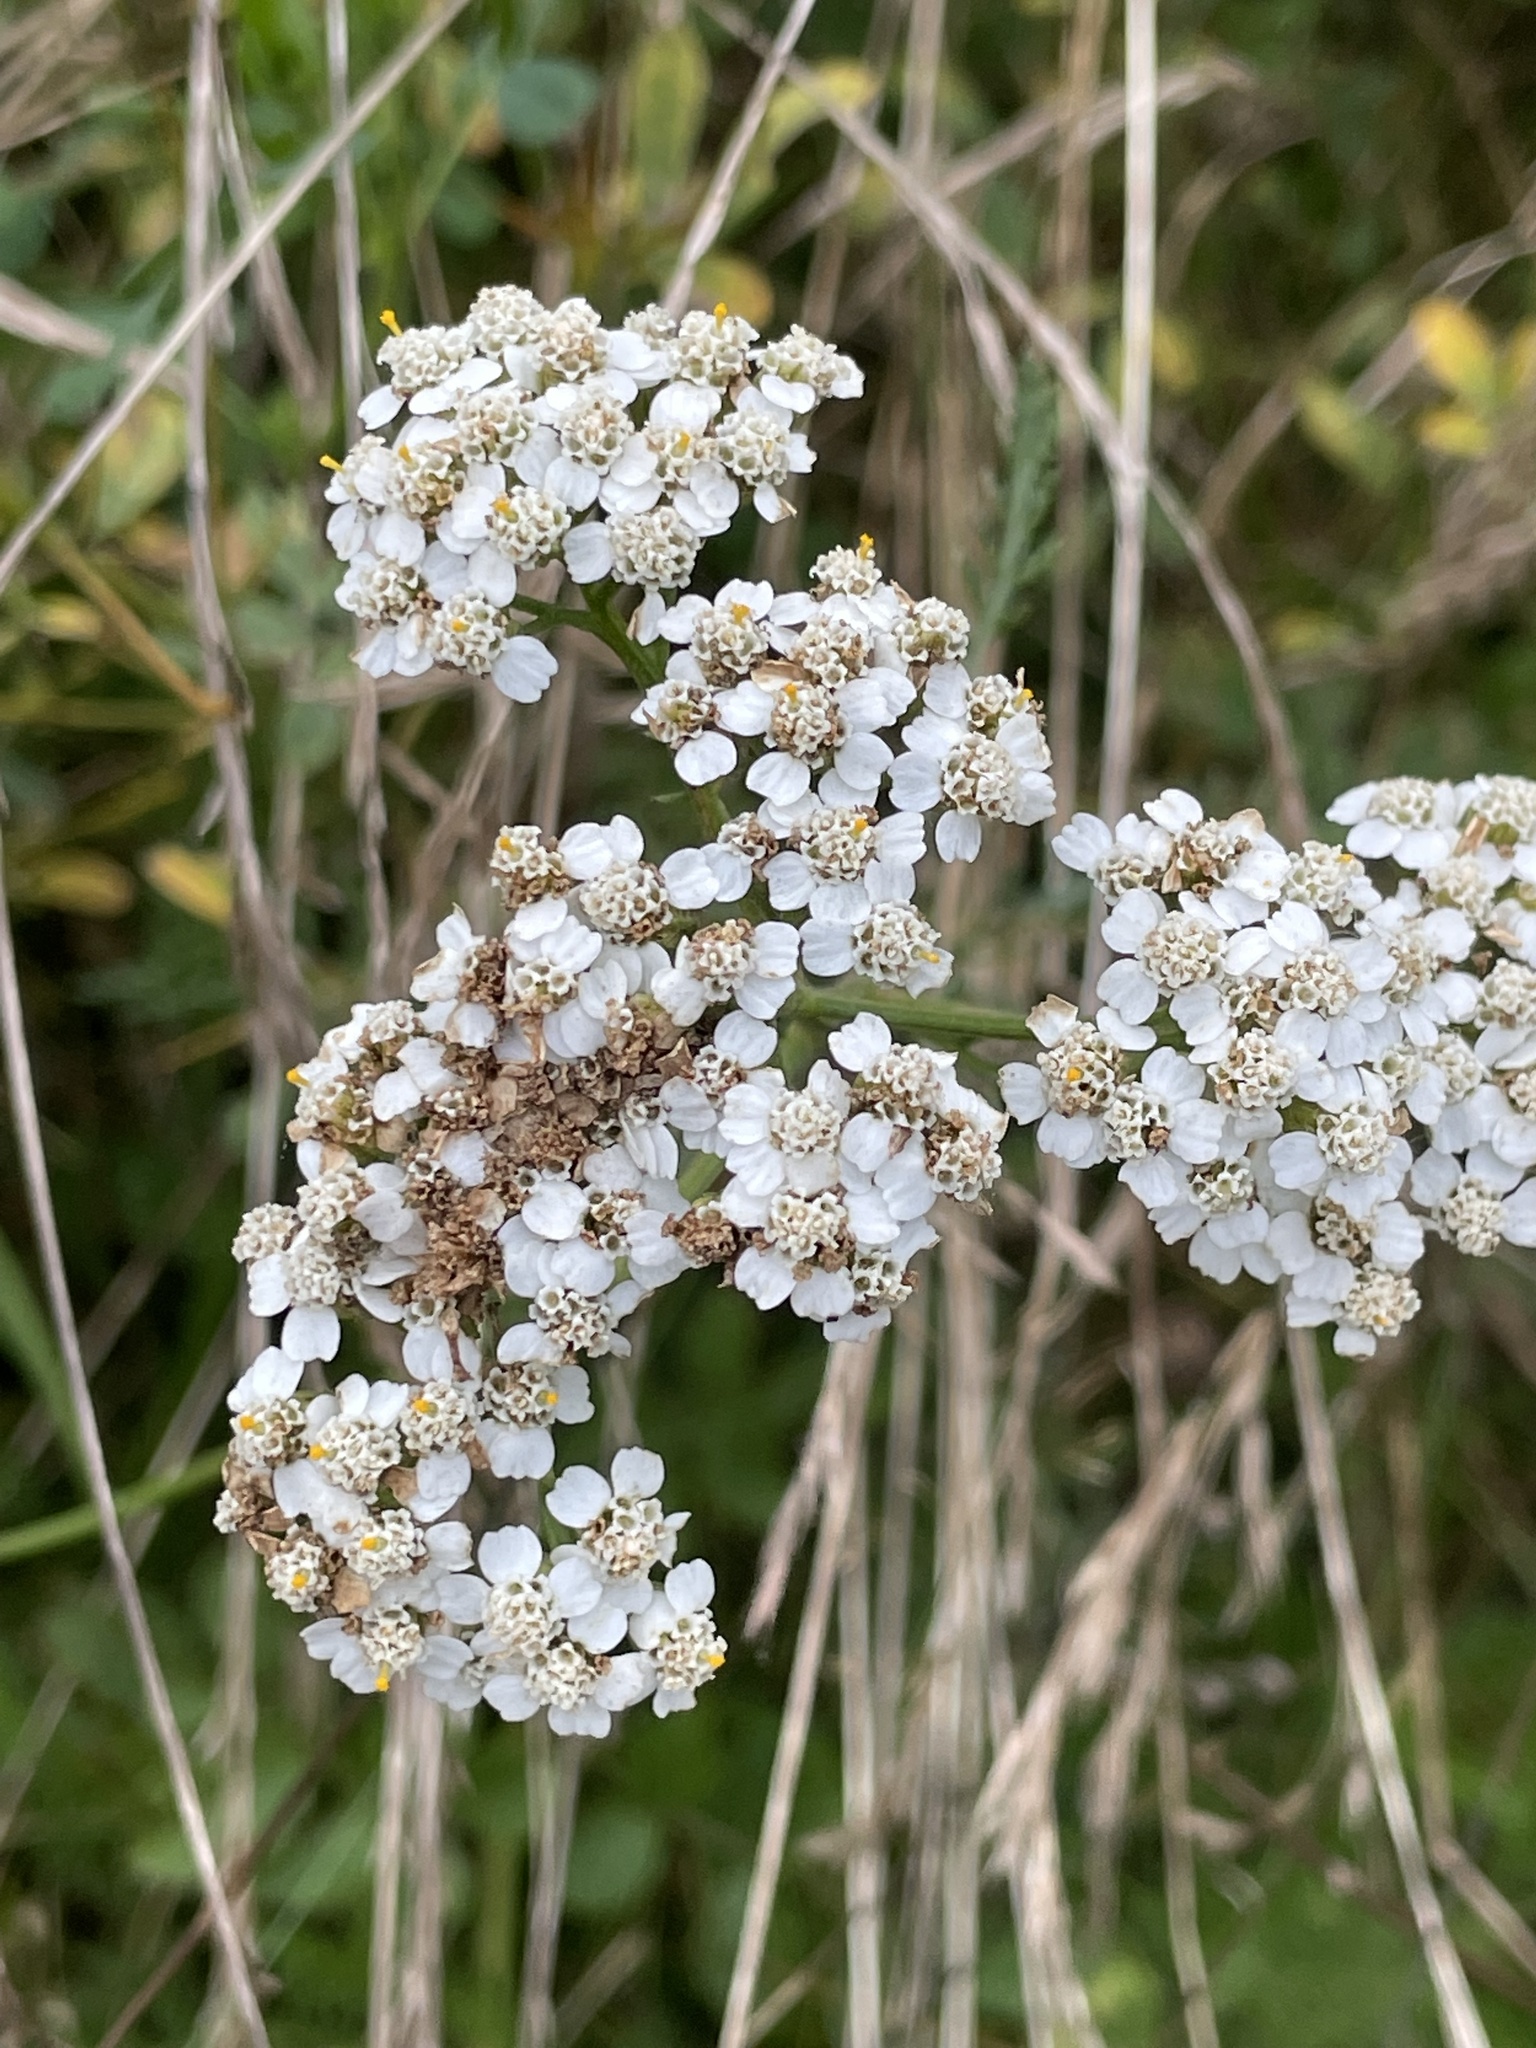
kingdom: Plantae
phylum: Tracheophyta
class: Magnoliopsida
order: Asterales
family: Asteraceae
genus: Achillea
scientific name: Achillea millefolium
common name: Yarrow
